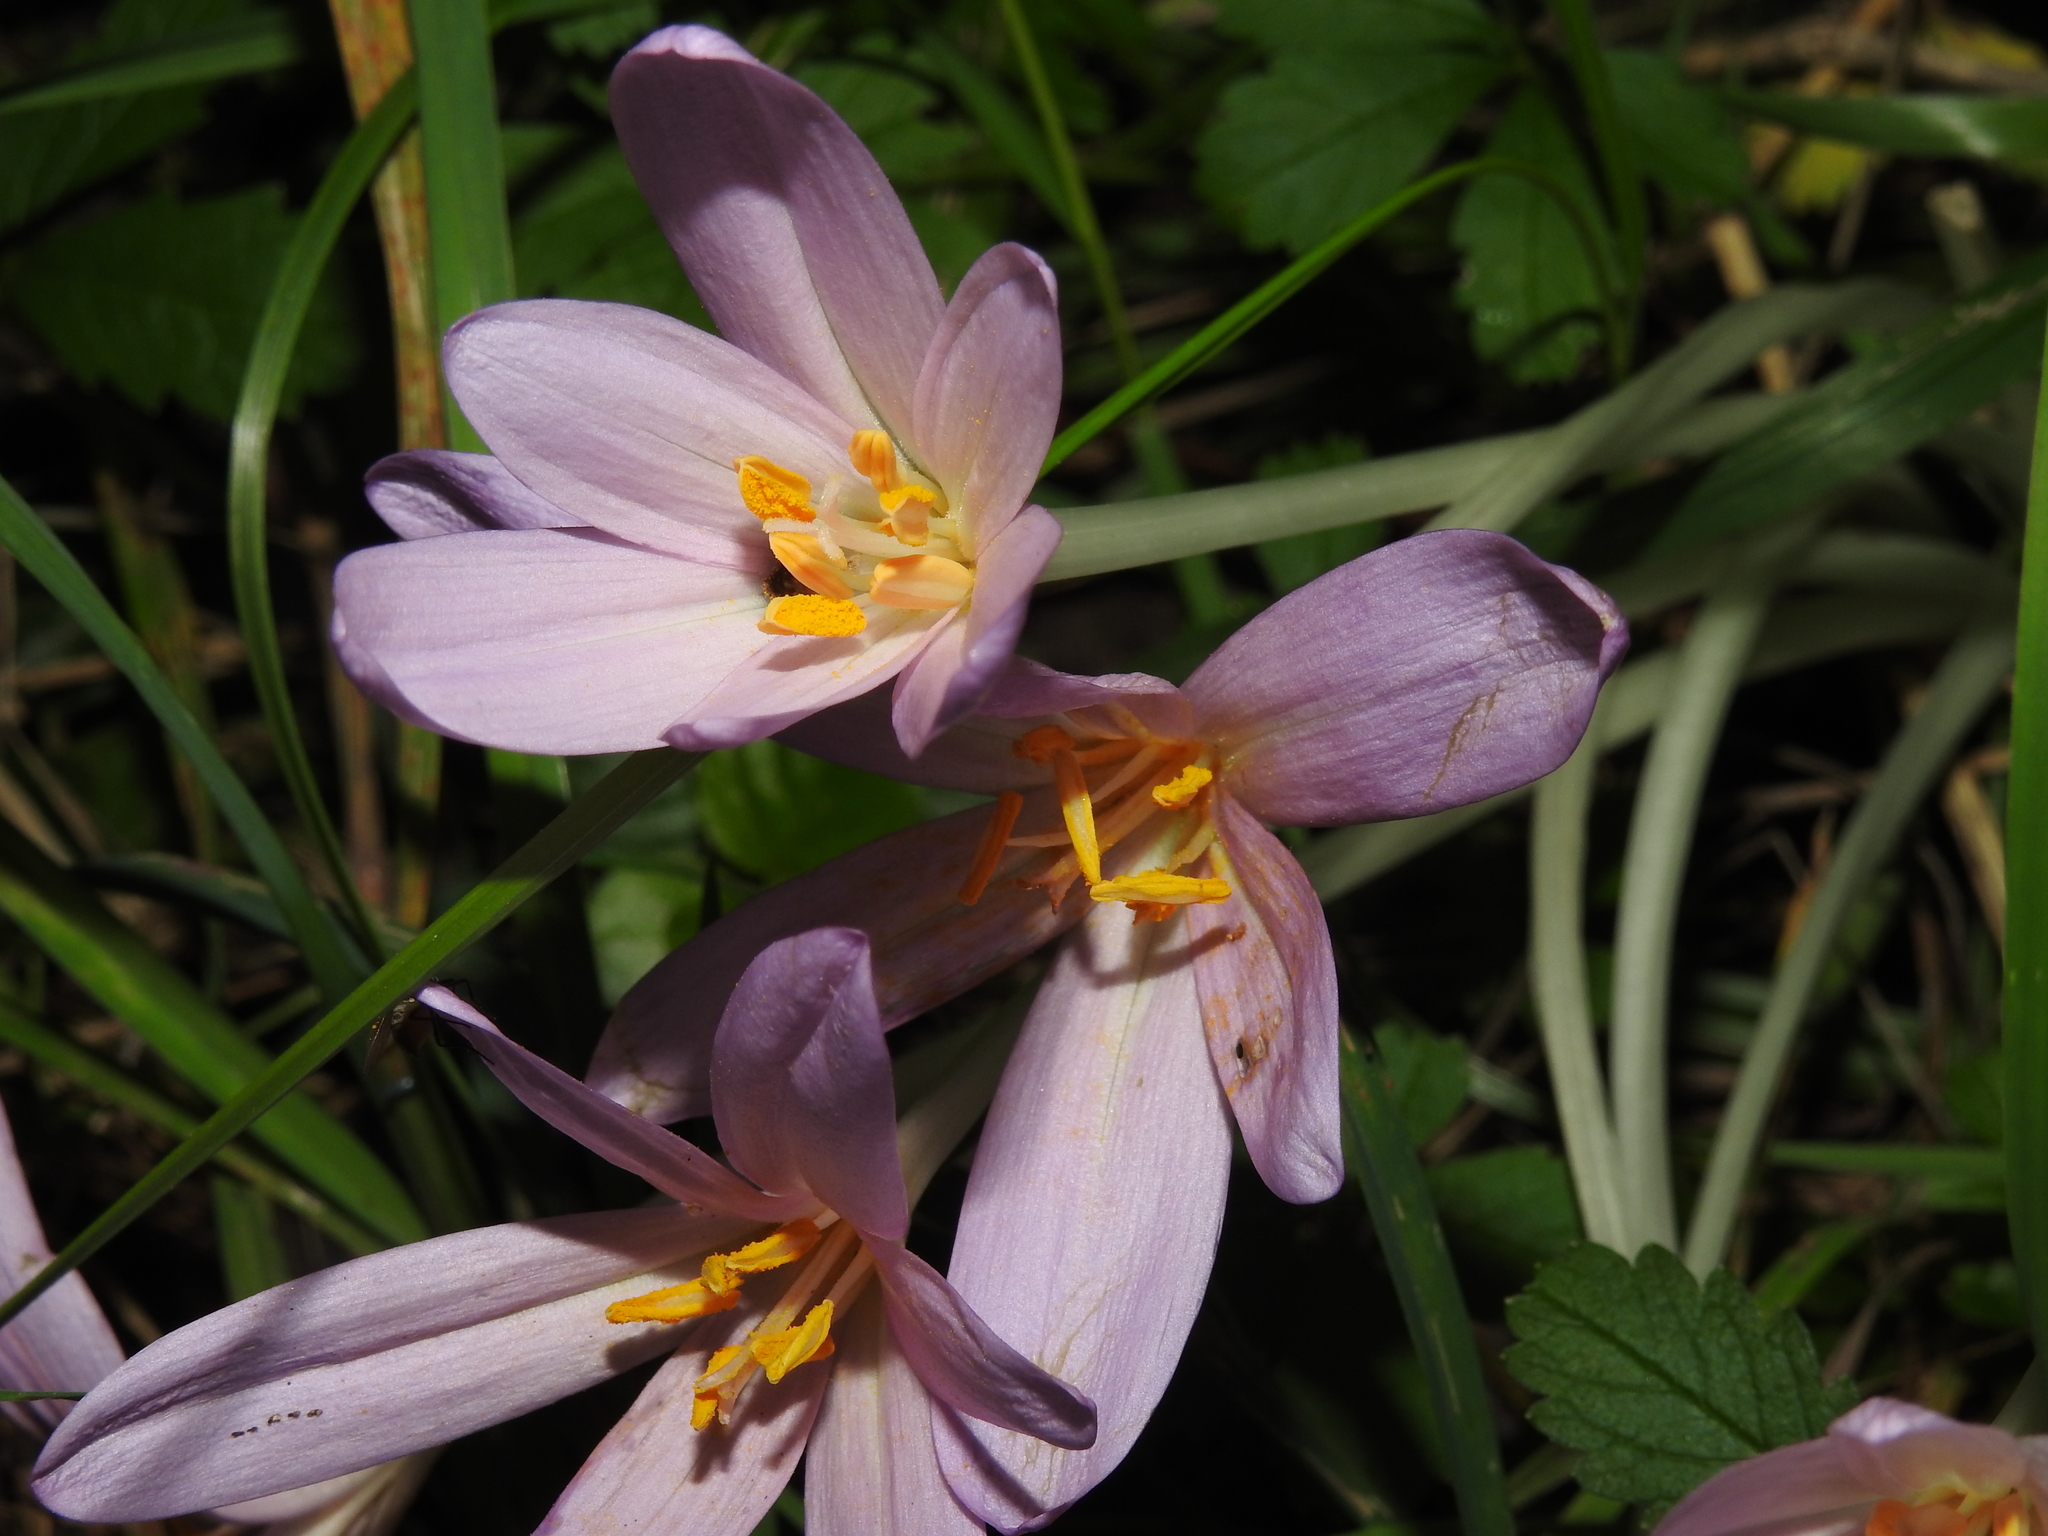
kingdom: Plantae
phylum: Tracheophyta
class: Liliopsida
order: Liliales
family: Colchicaceae
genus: Colchicum
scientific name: Colchicum autumnale
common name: Autumn crocus
